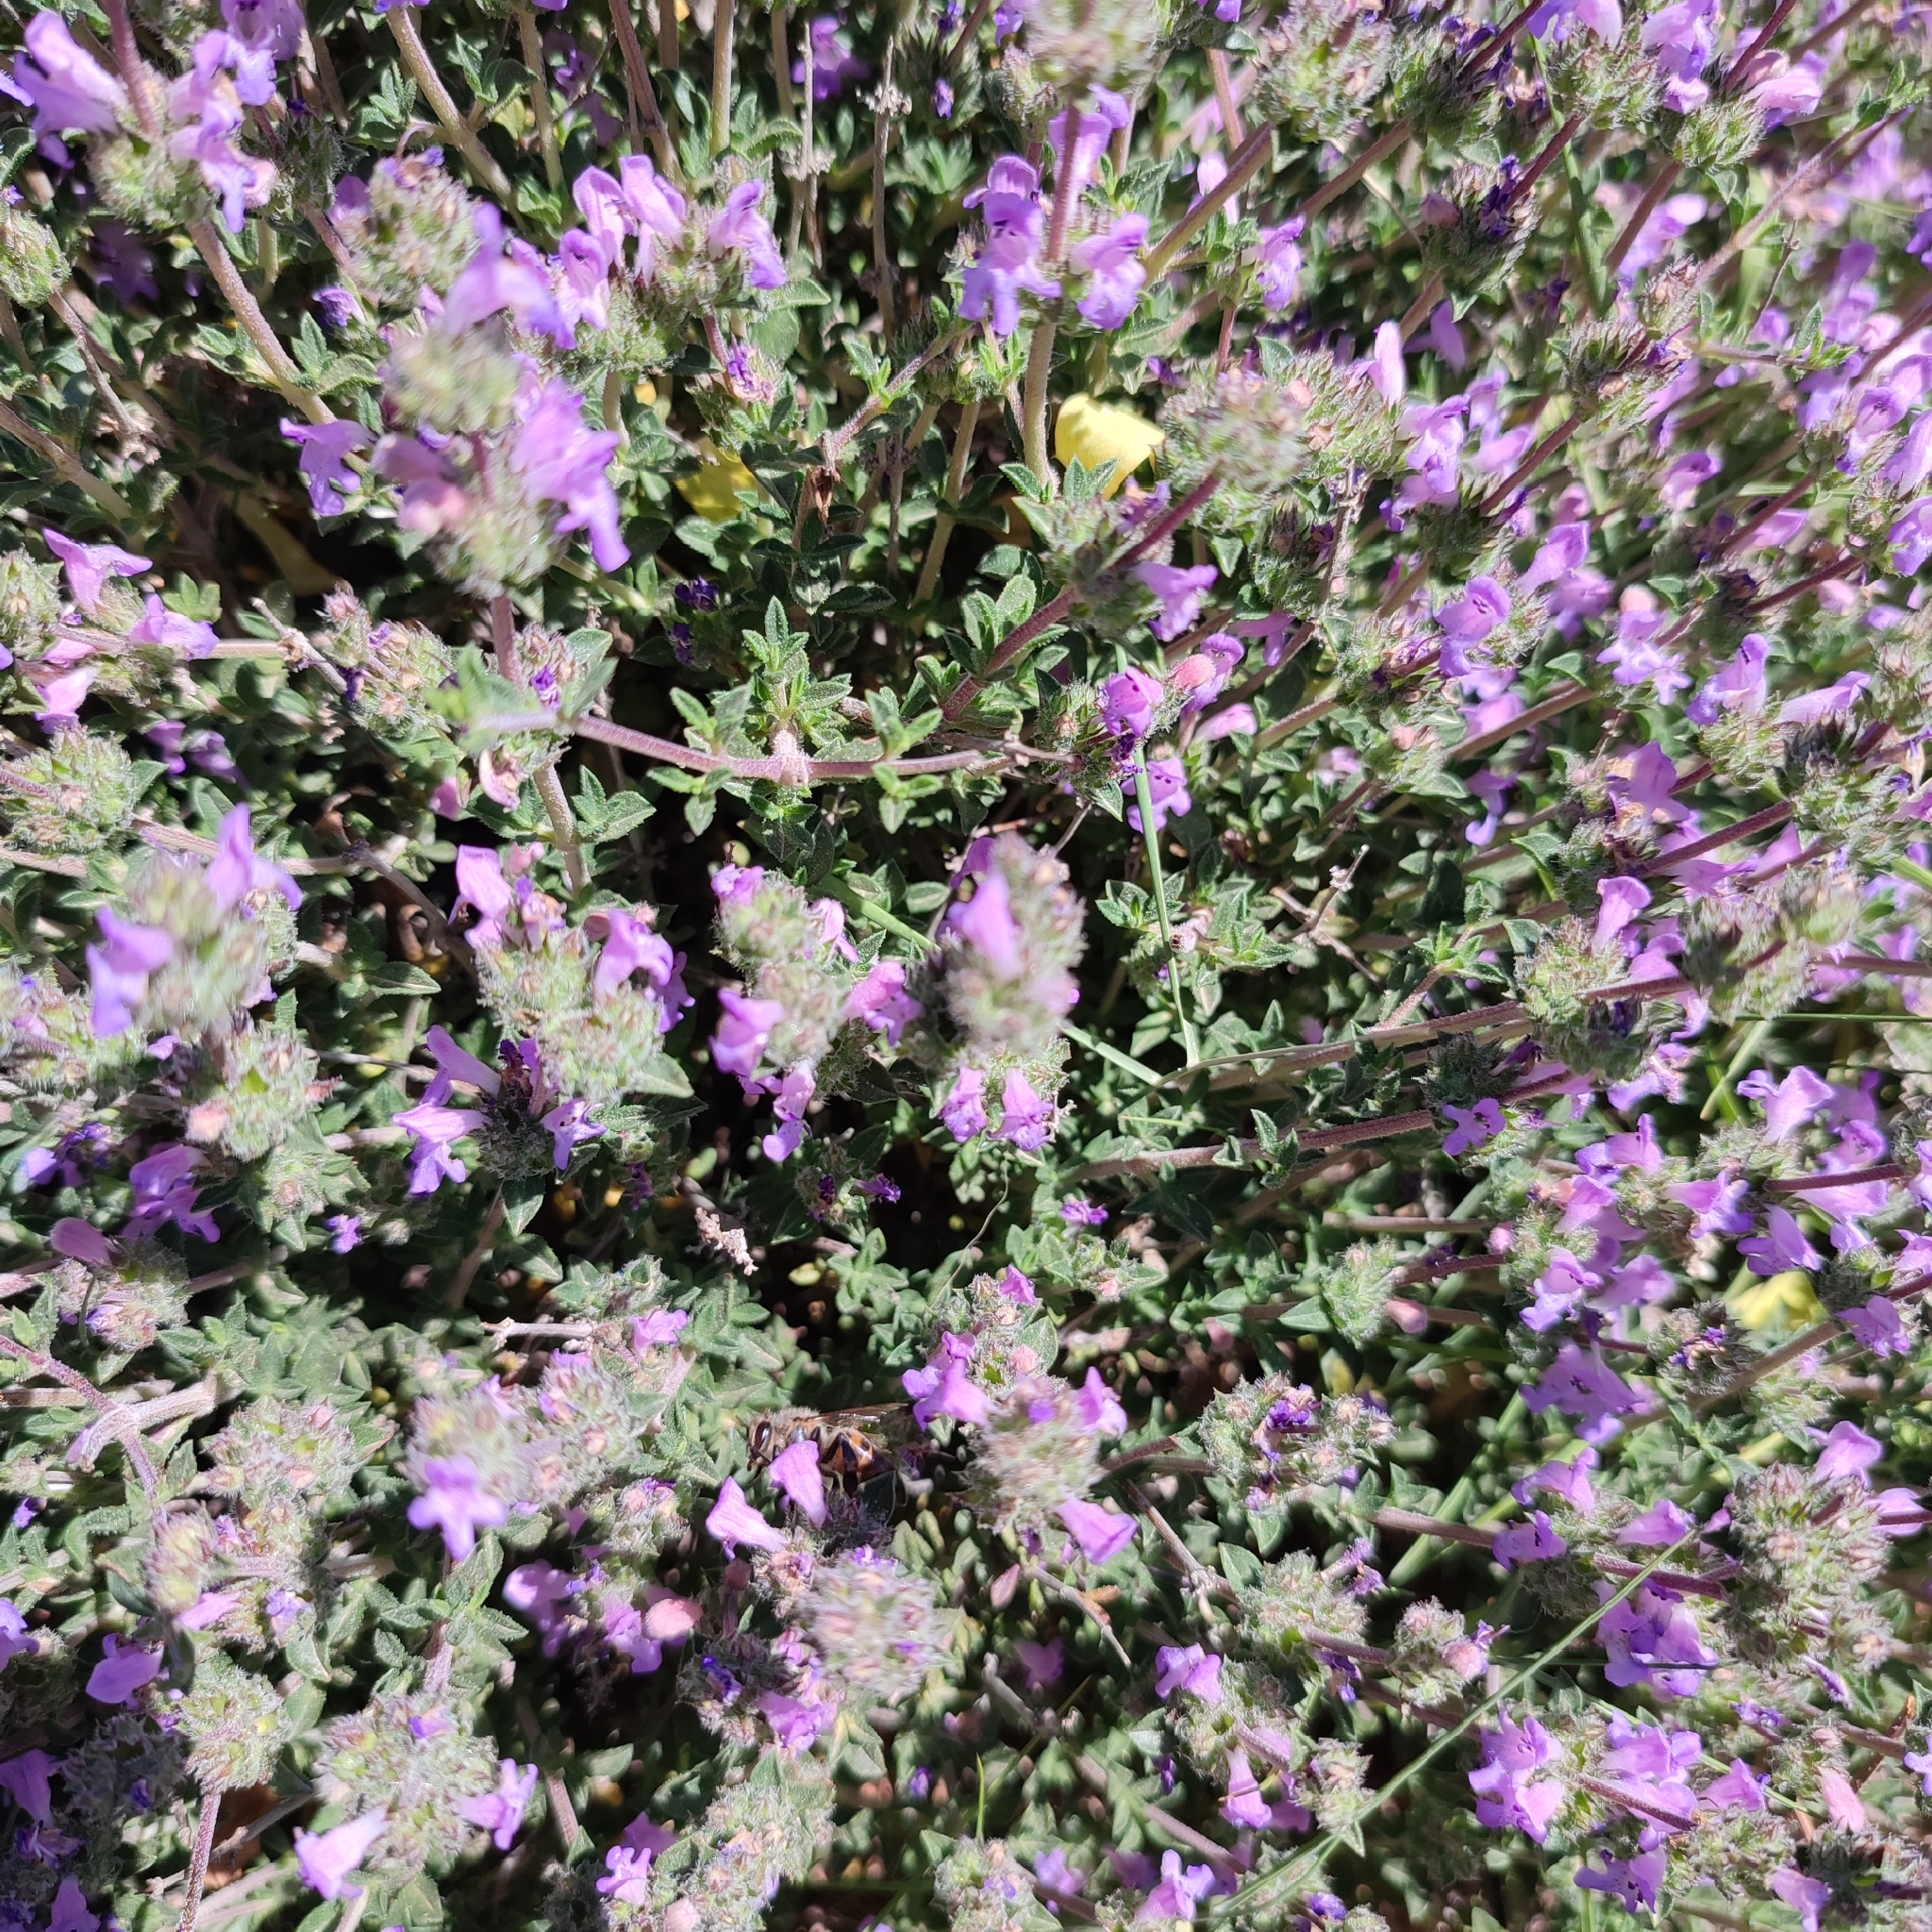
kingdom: Plantae
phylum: Tracheophyta
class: Magnoliopsida
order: Lamiales
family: Lamiaceae
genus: Satureja
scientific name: Satureja thymbra
